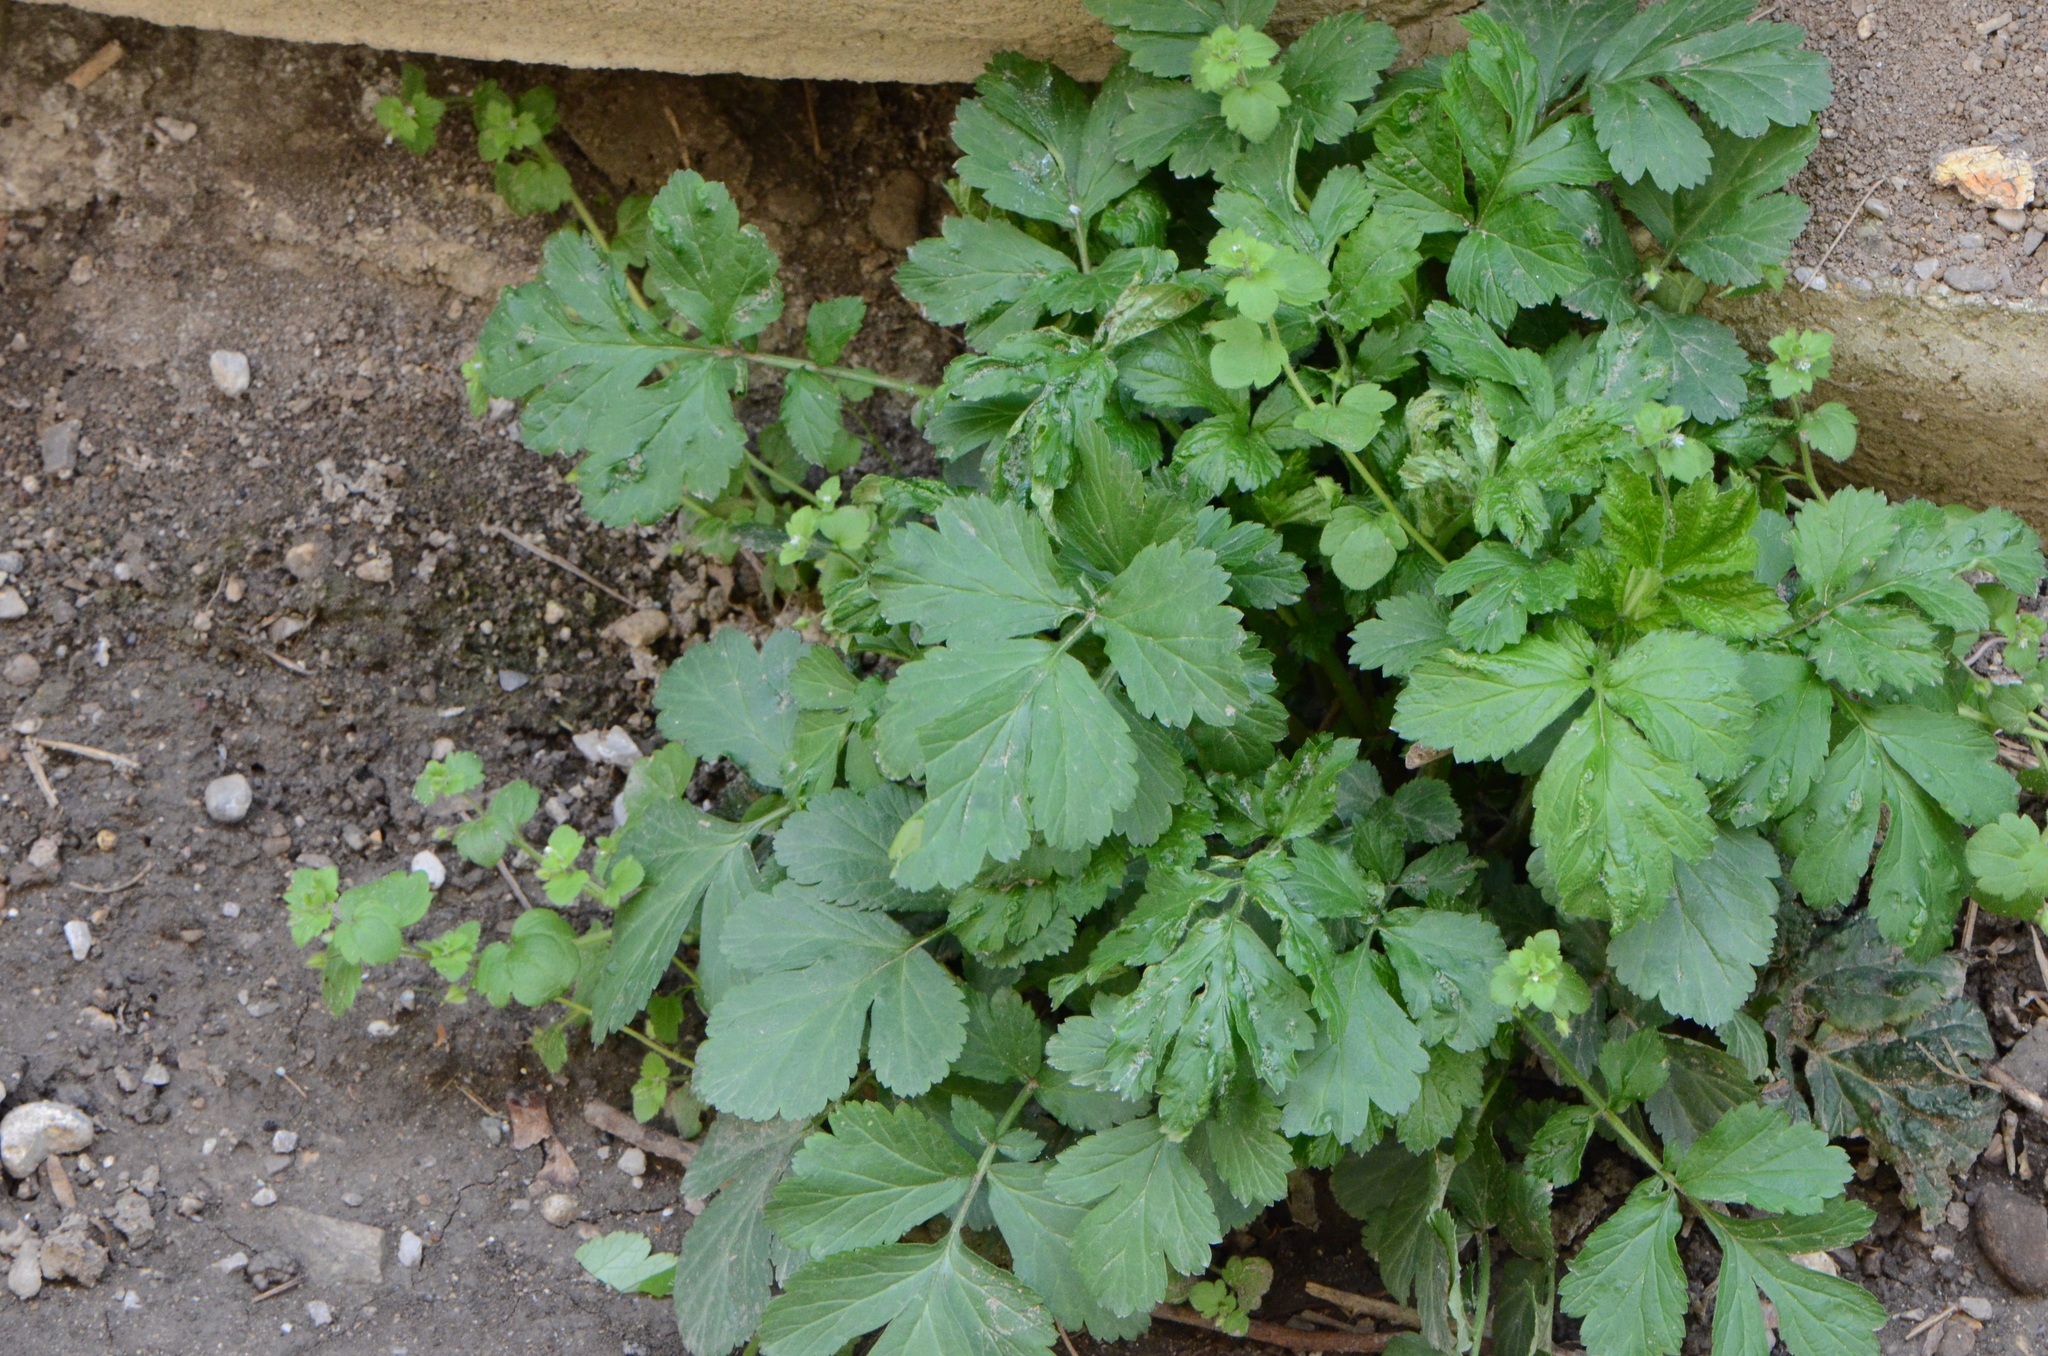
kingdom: Plantae
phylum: Tracheophyta
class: Magnoliopsida
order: Rosales
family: Rosaceae
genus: Geum
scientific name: Geum urbanum
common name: Wood avens
